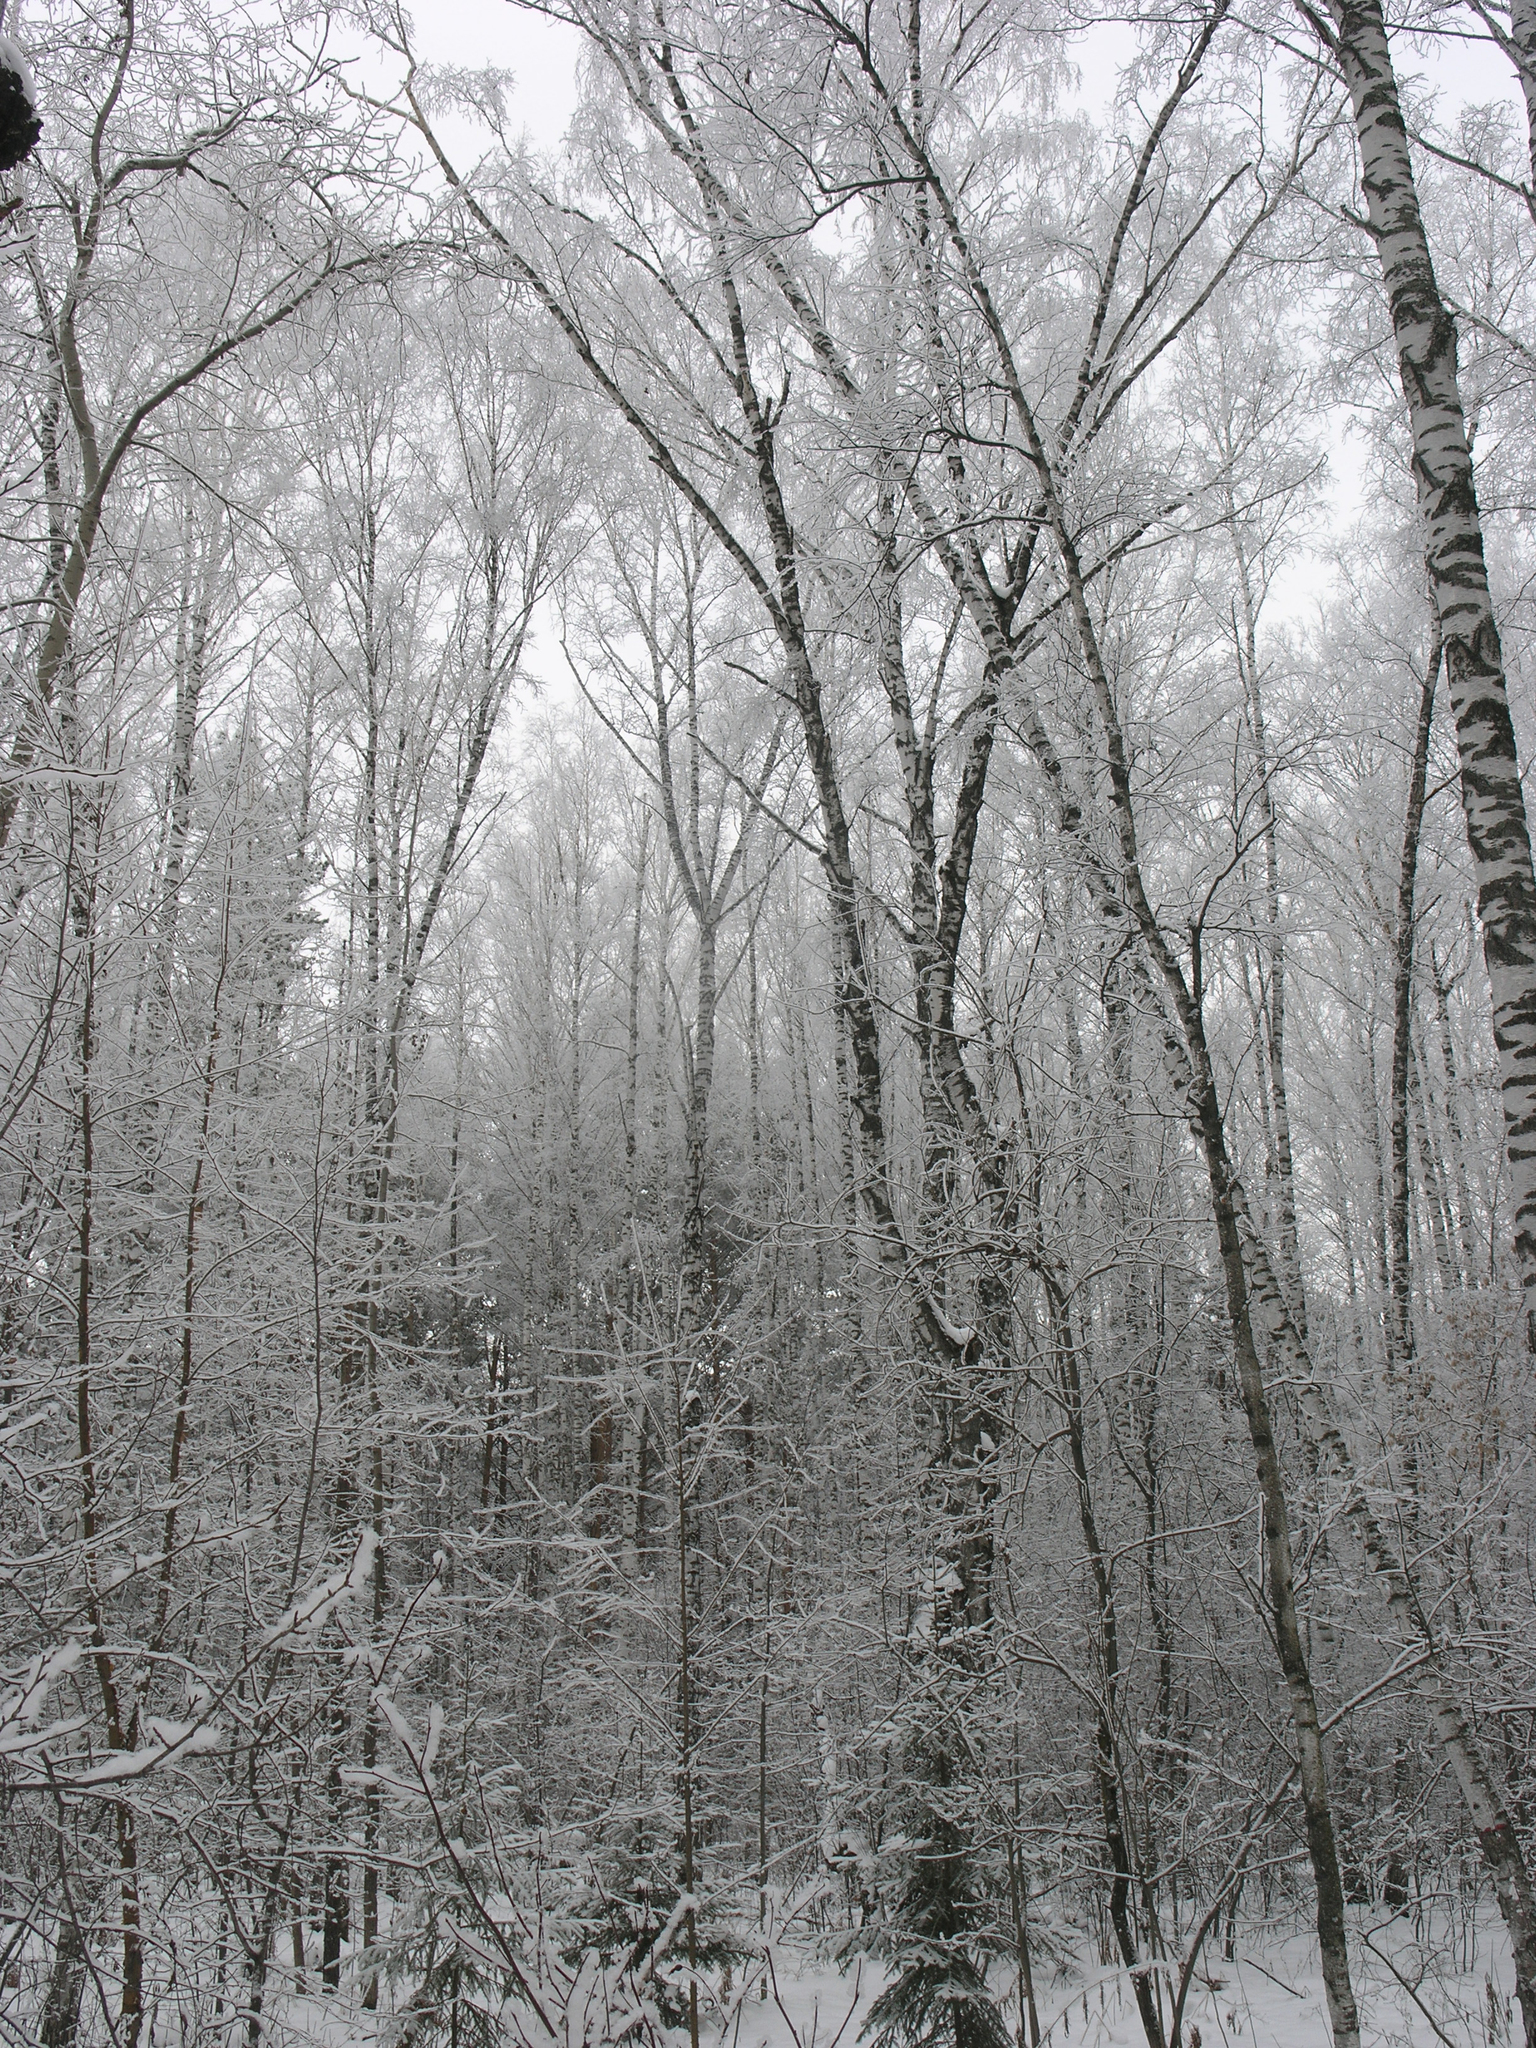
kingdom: Plantae
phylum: Tracheophyta
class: Magnoliopsida
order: Fagales
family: Betulaceae
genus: Betula
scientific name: Betula pendula
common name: Silver birch
